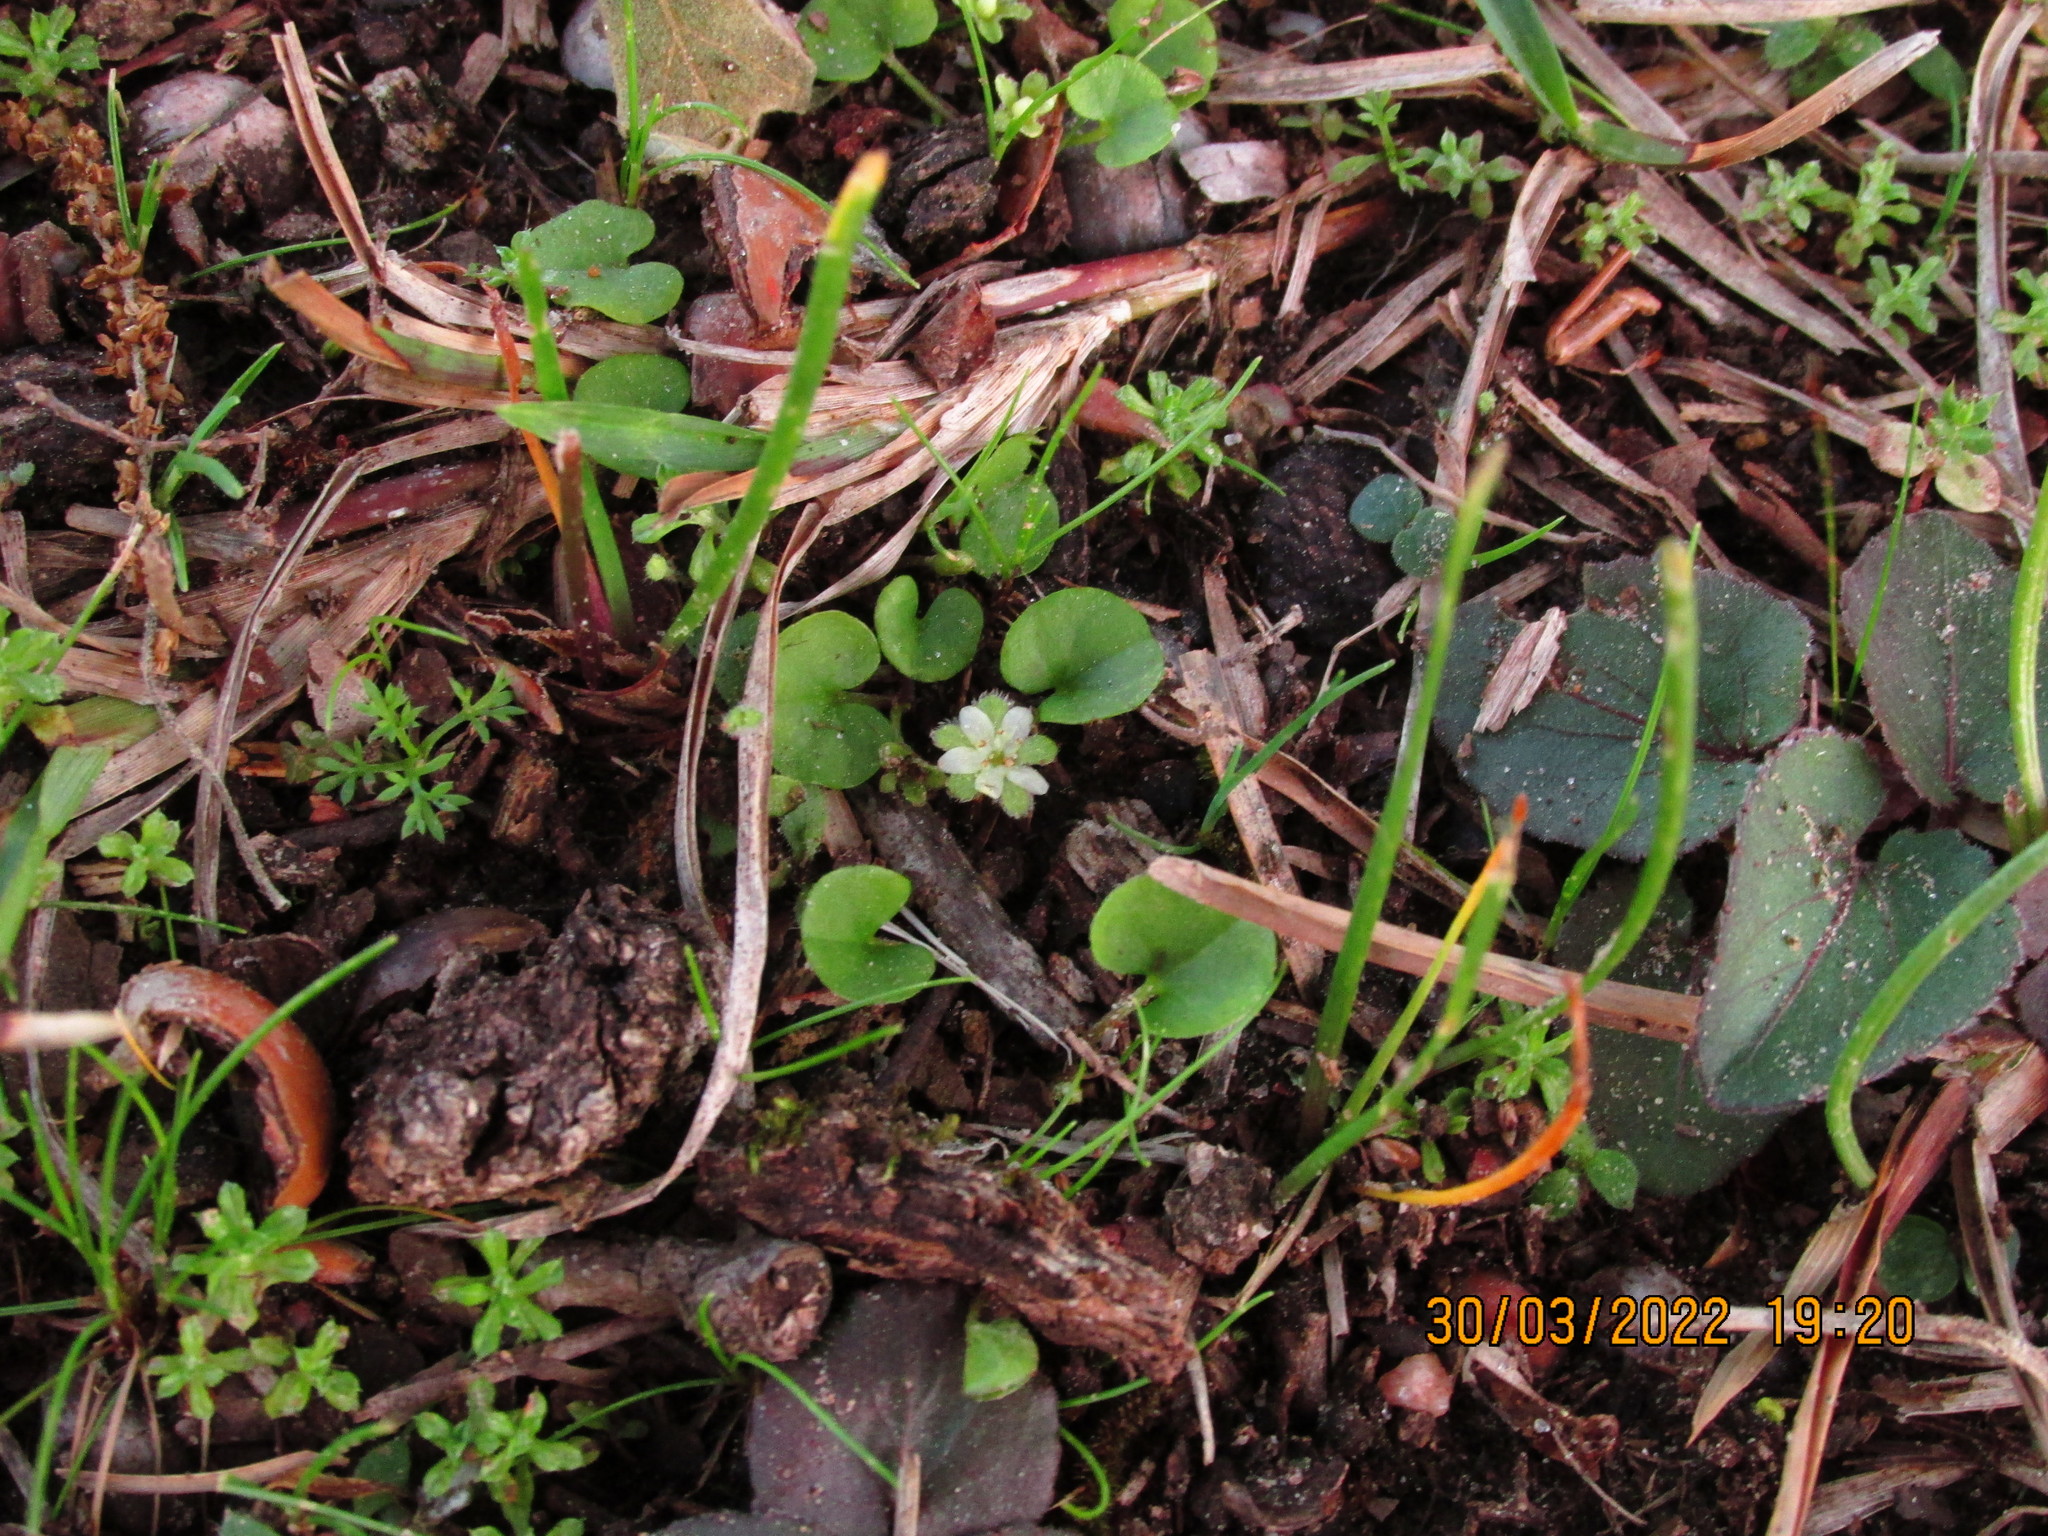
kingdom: Plantae
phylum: Tracheophyta
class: Magnoliopsida
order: Solanales
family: Convolvulaceae
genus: Dichondra
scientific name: Dichondra carolinensis
